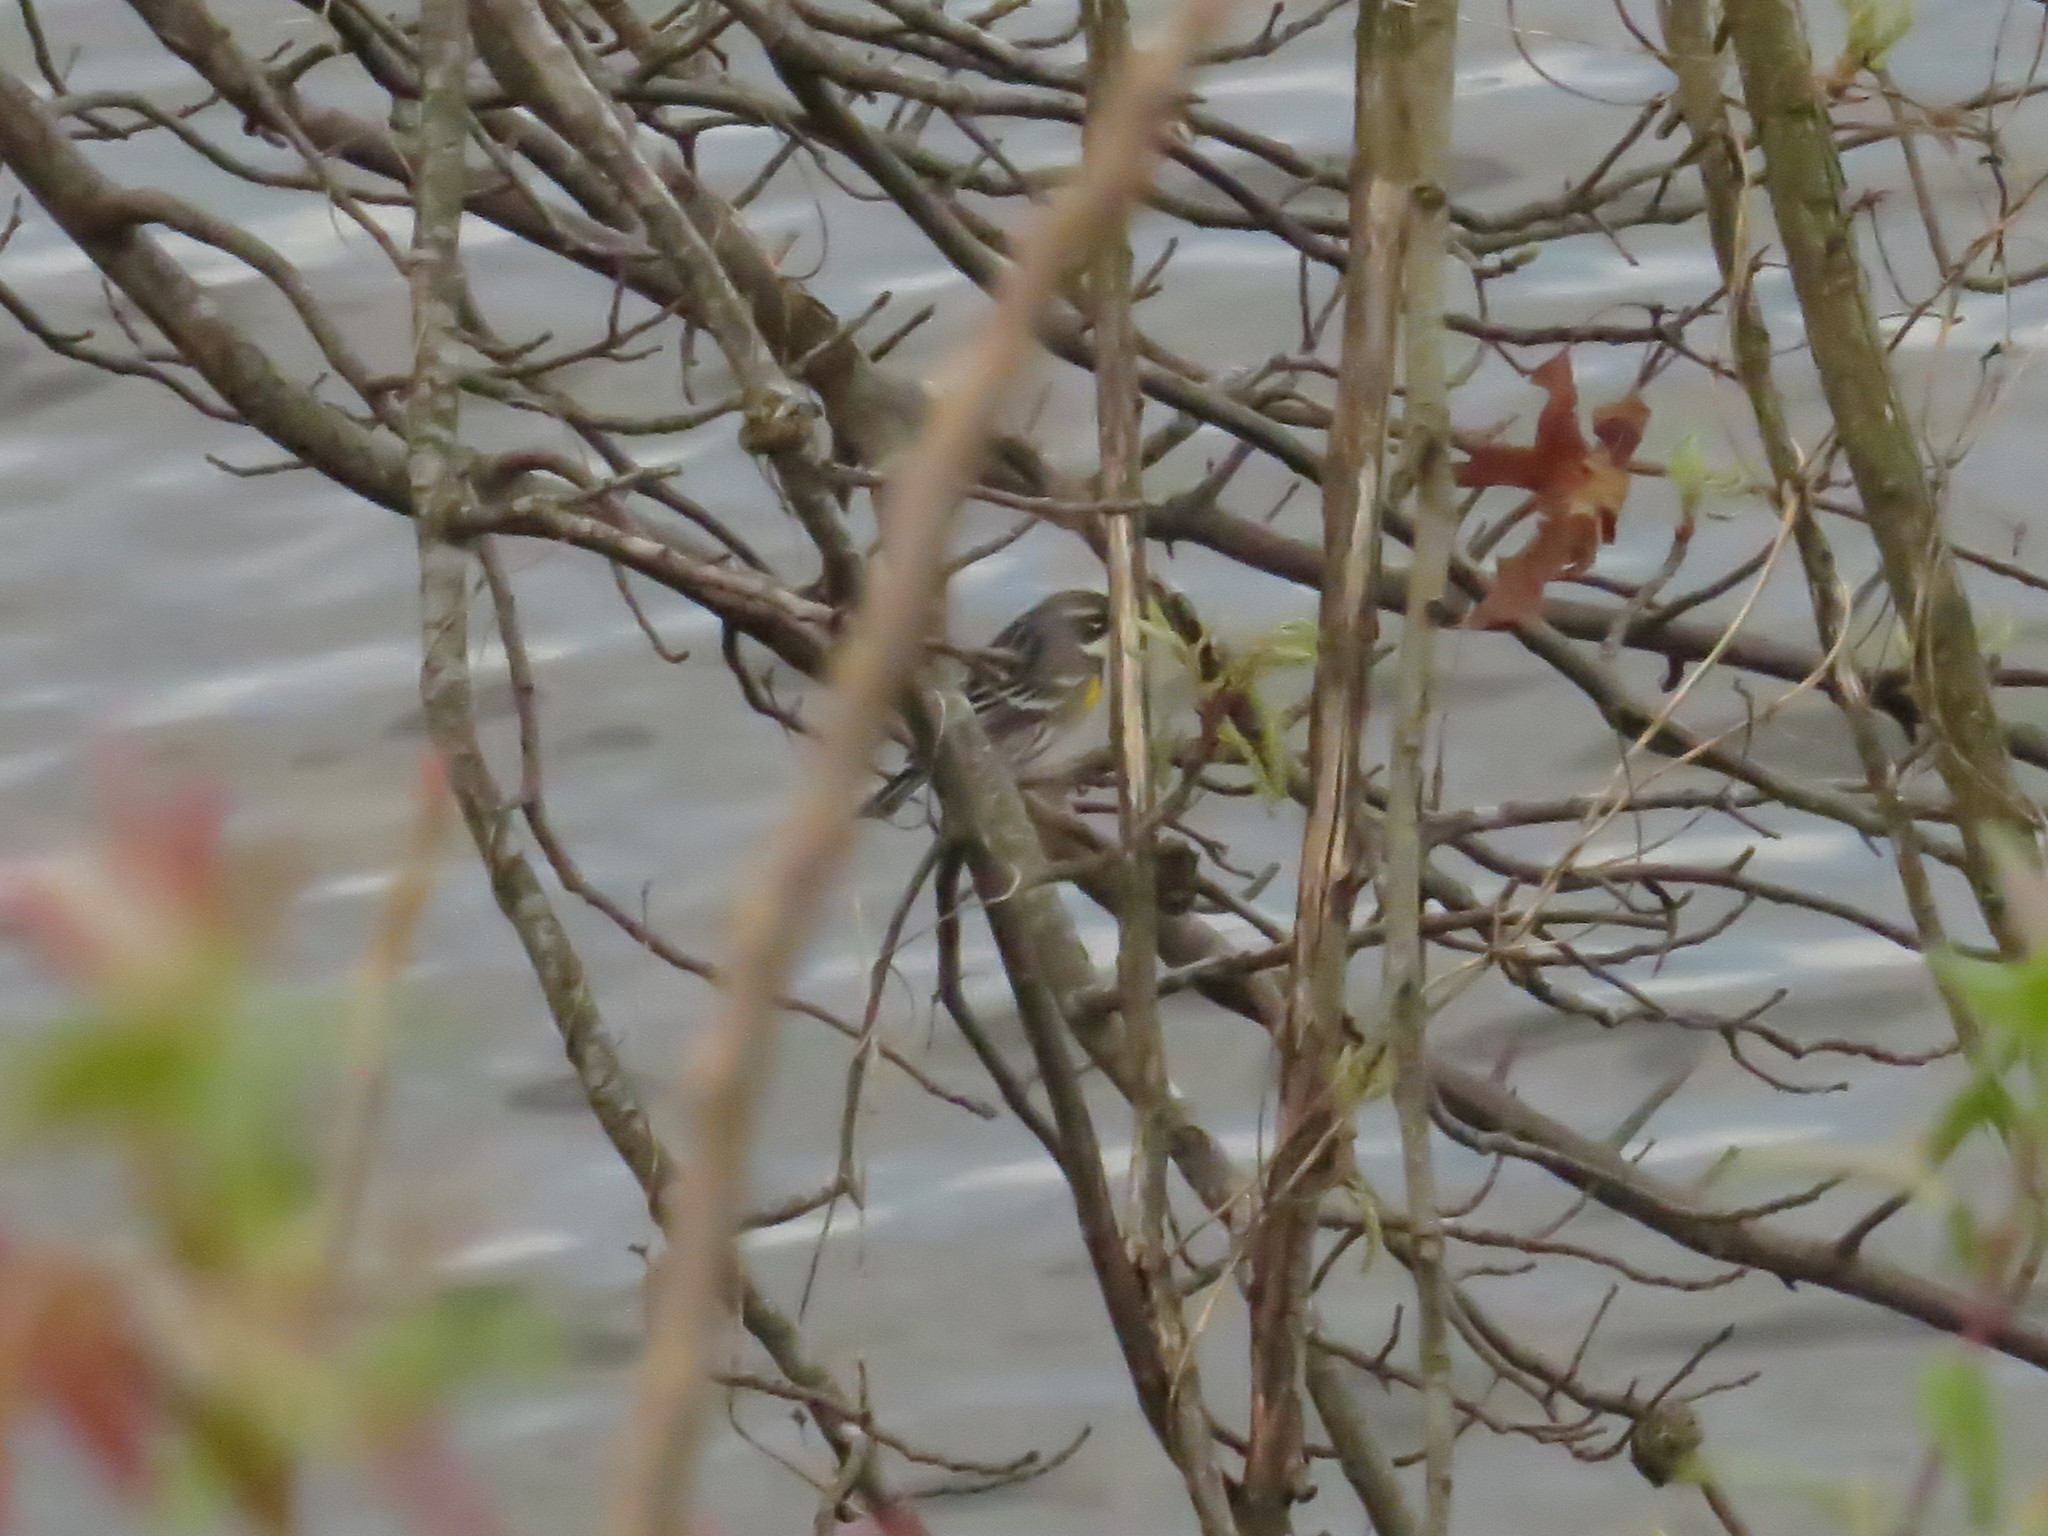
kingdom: Animalia
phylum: Chordata
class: Aves
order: Passeriformes
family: Parulidae
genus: Setophaga
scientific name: Setophaga coronata
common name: Myrtle warbler
